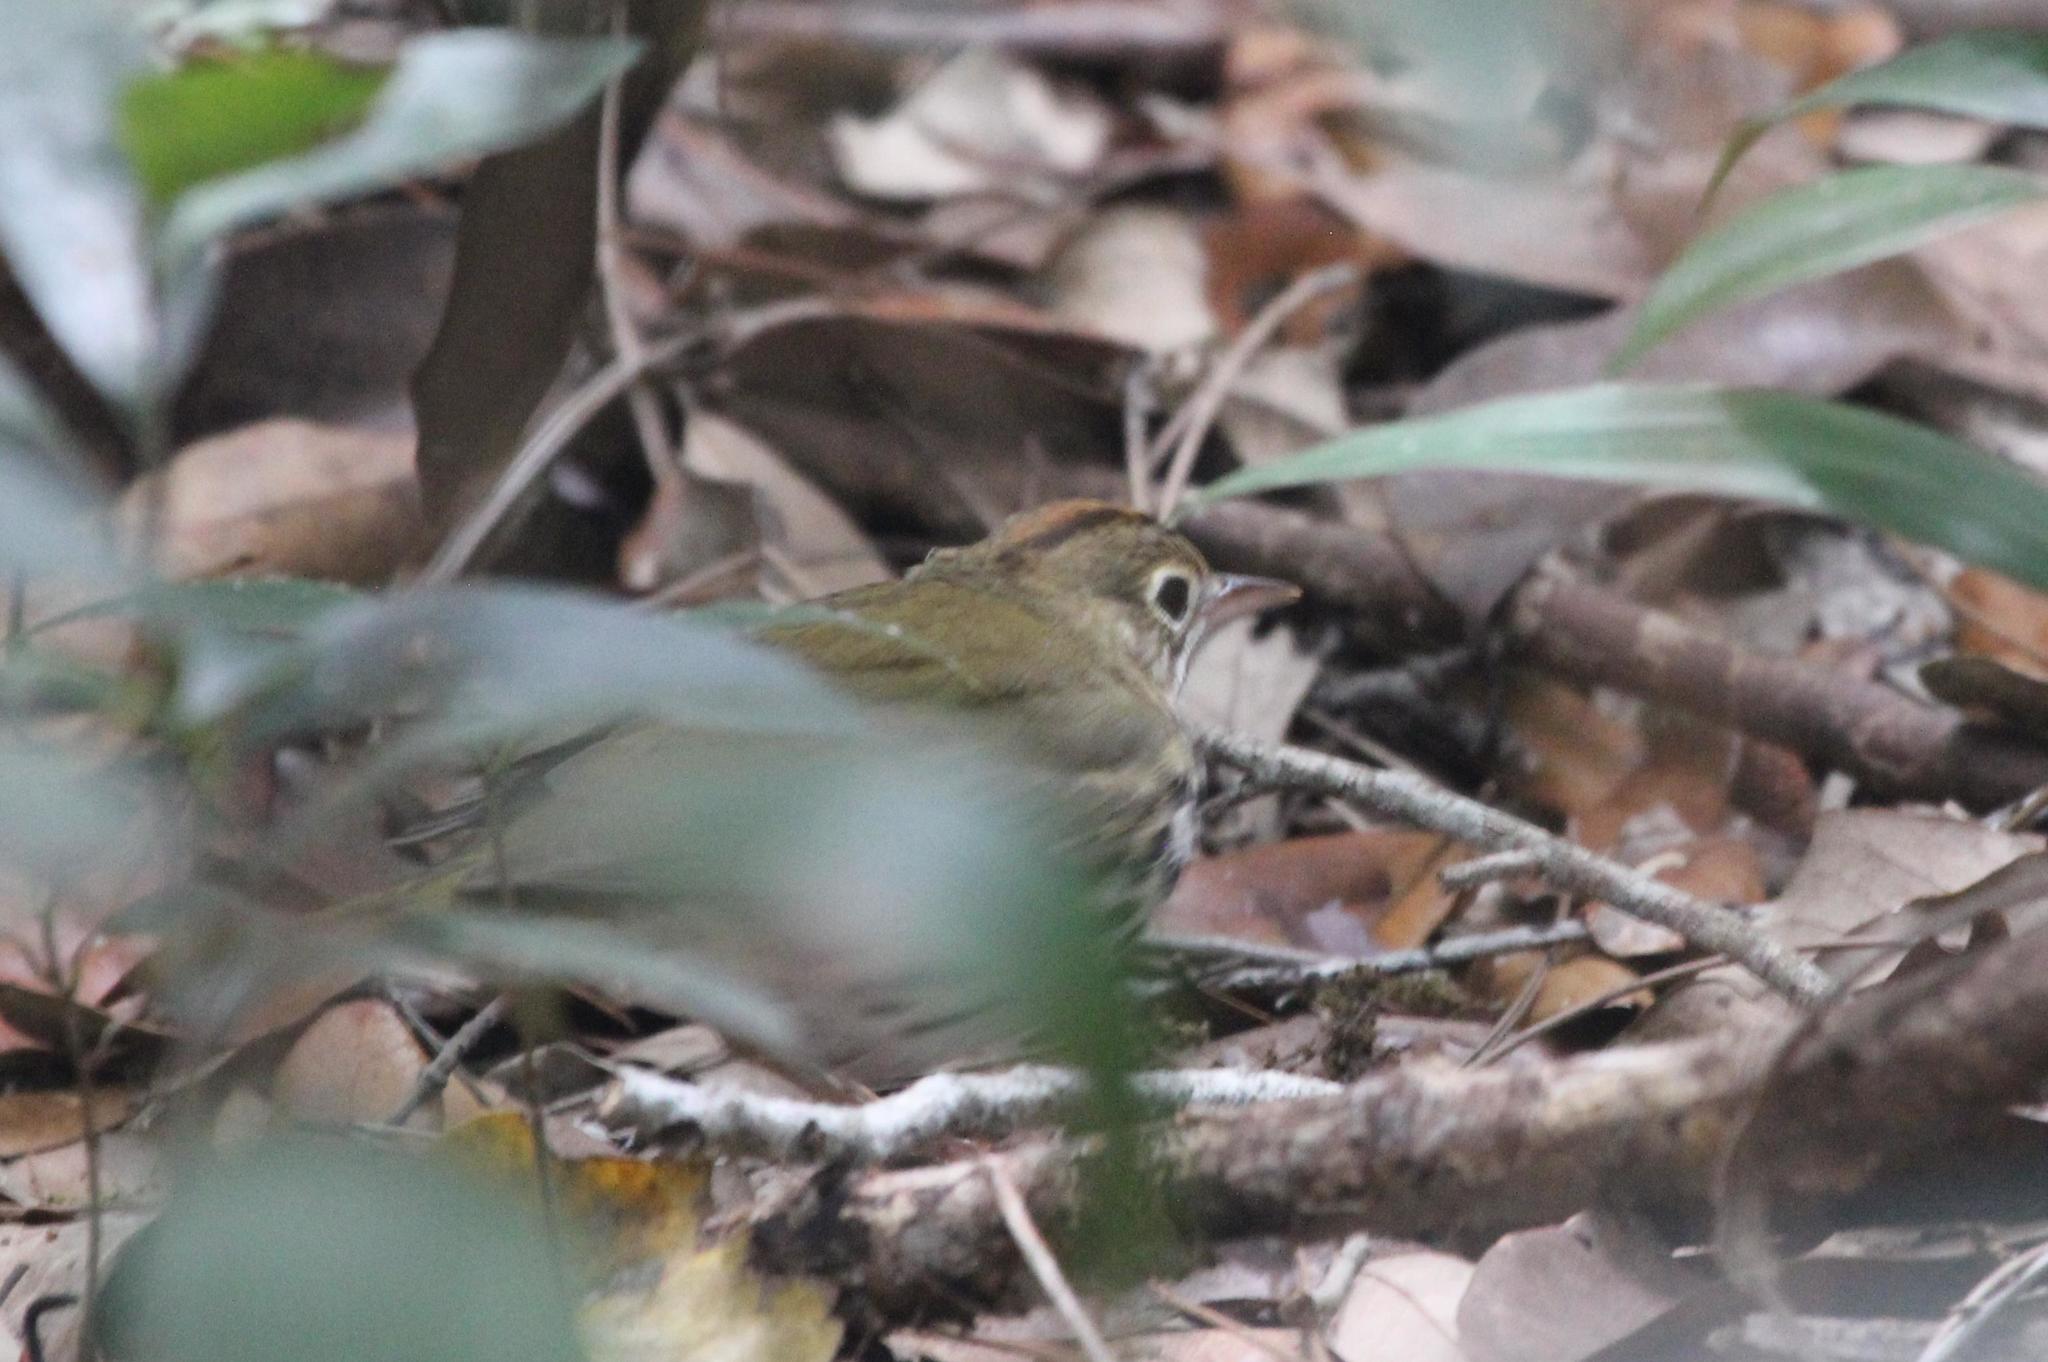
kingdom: Animalia
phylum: Chordata
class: Aves
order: Passeriformes
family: Parulidae
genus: Seiurus
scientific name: Seiurus aurocapilla
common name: Ovenbird
